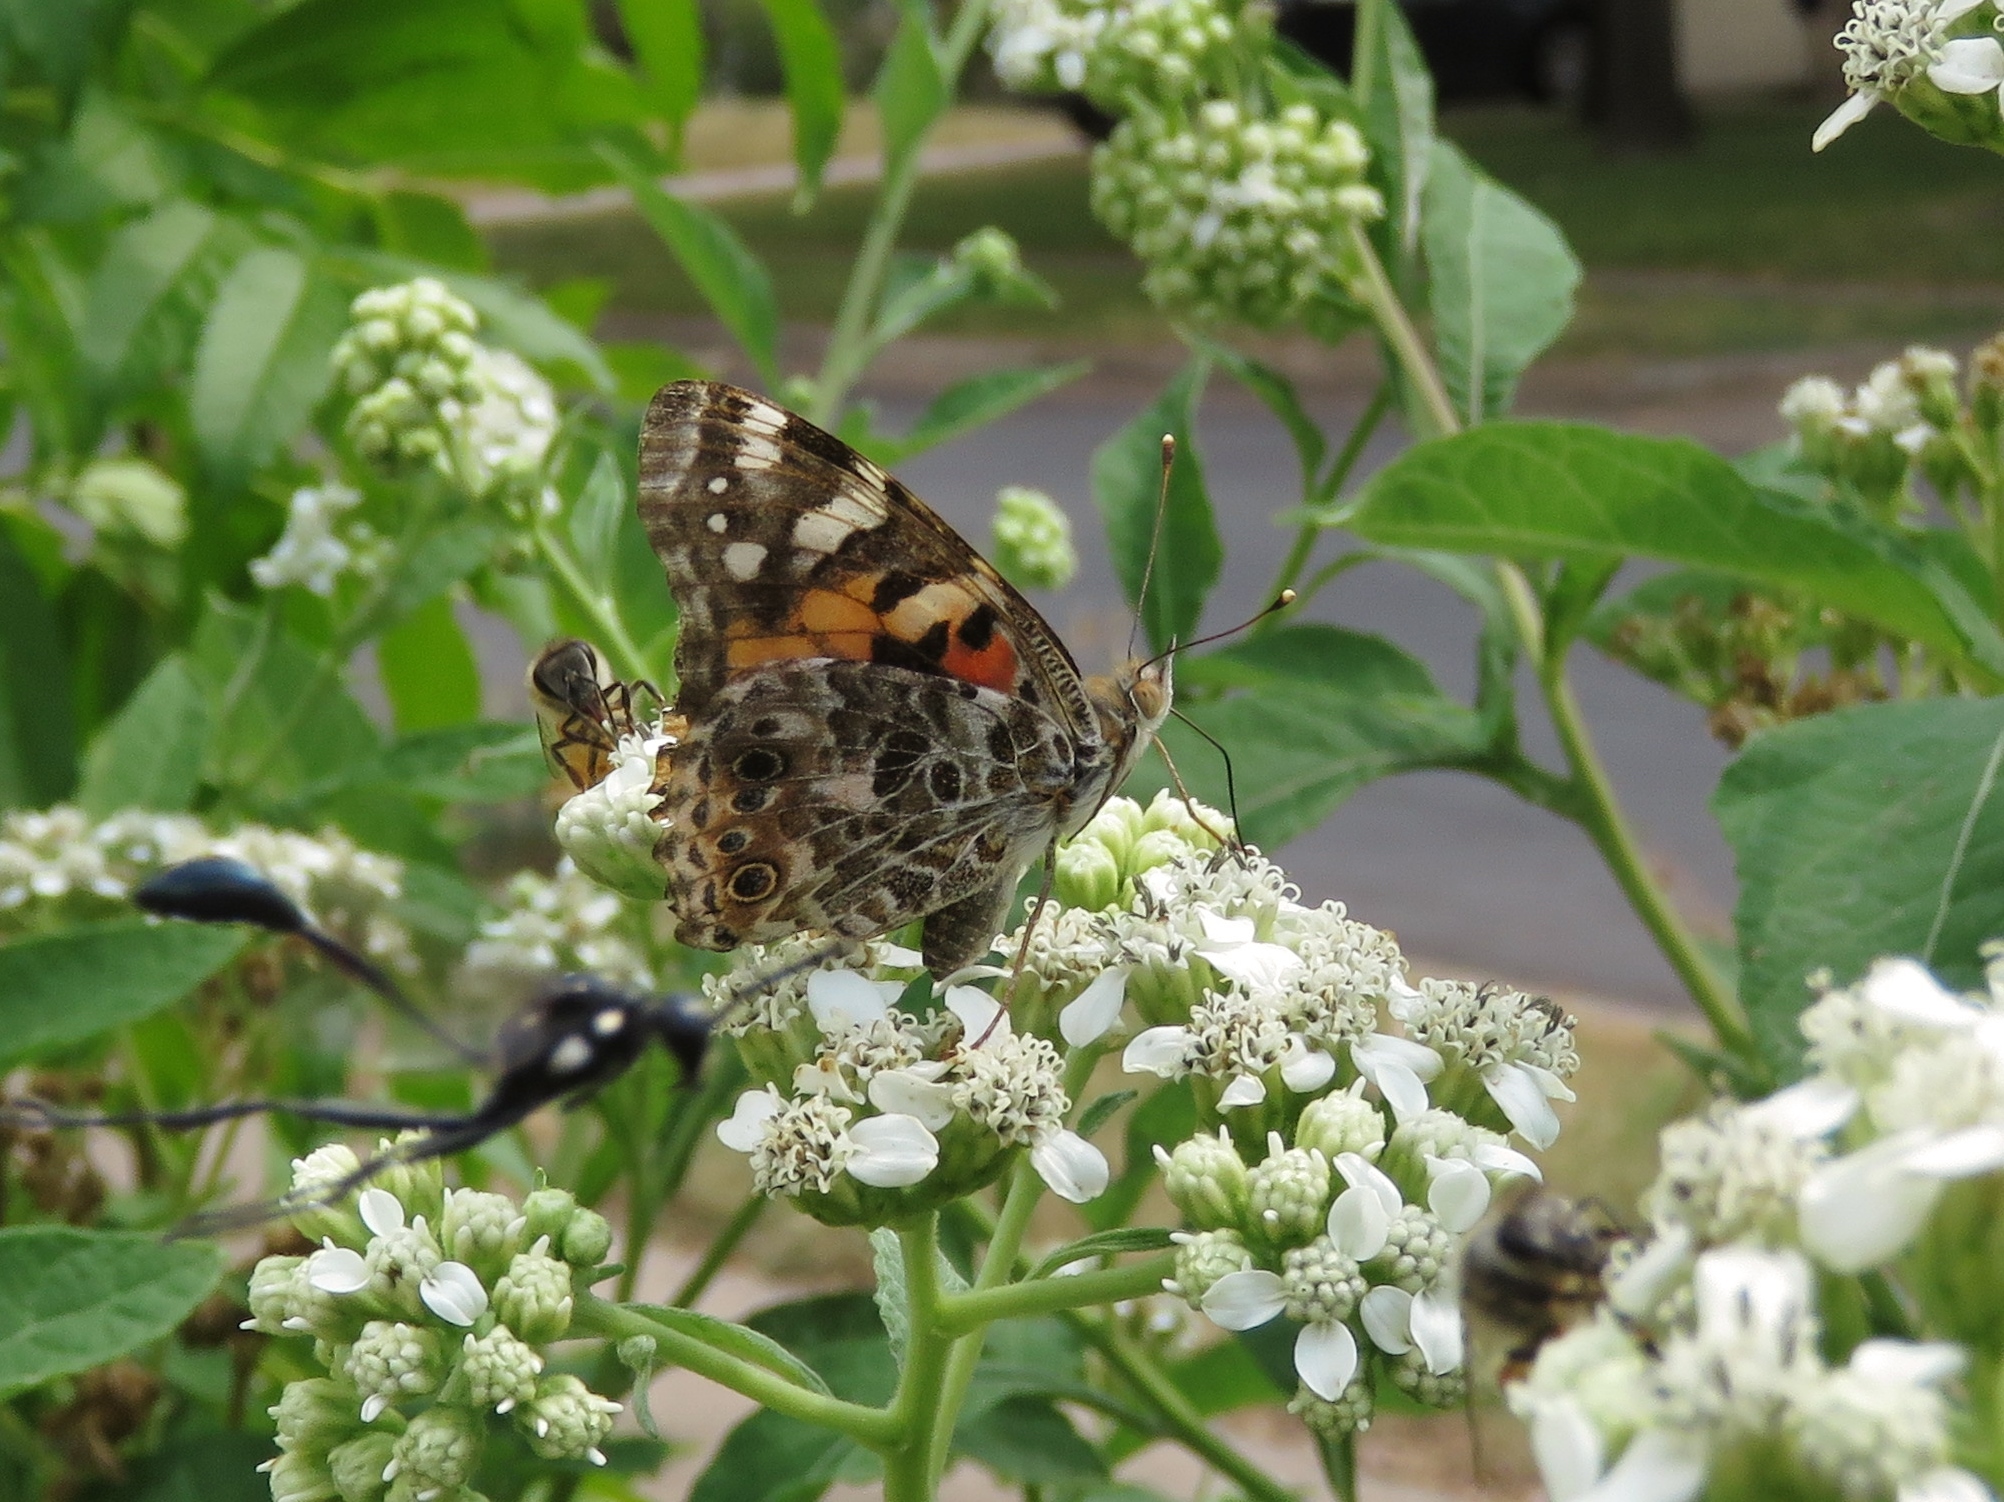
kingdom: Animalia
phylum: Arthropoda
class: Insecta
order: Lepidoptera
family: Nymphalidae
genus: Vanessa
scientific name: Vanessa cardui
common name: Painted lady
